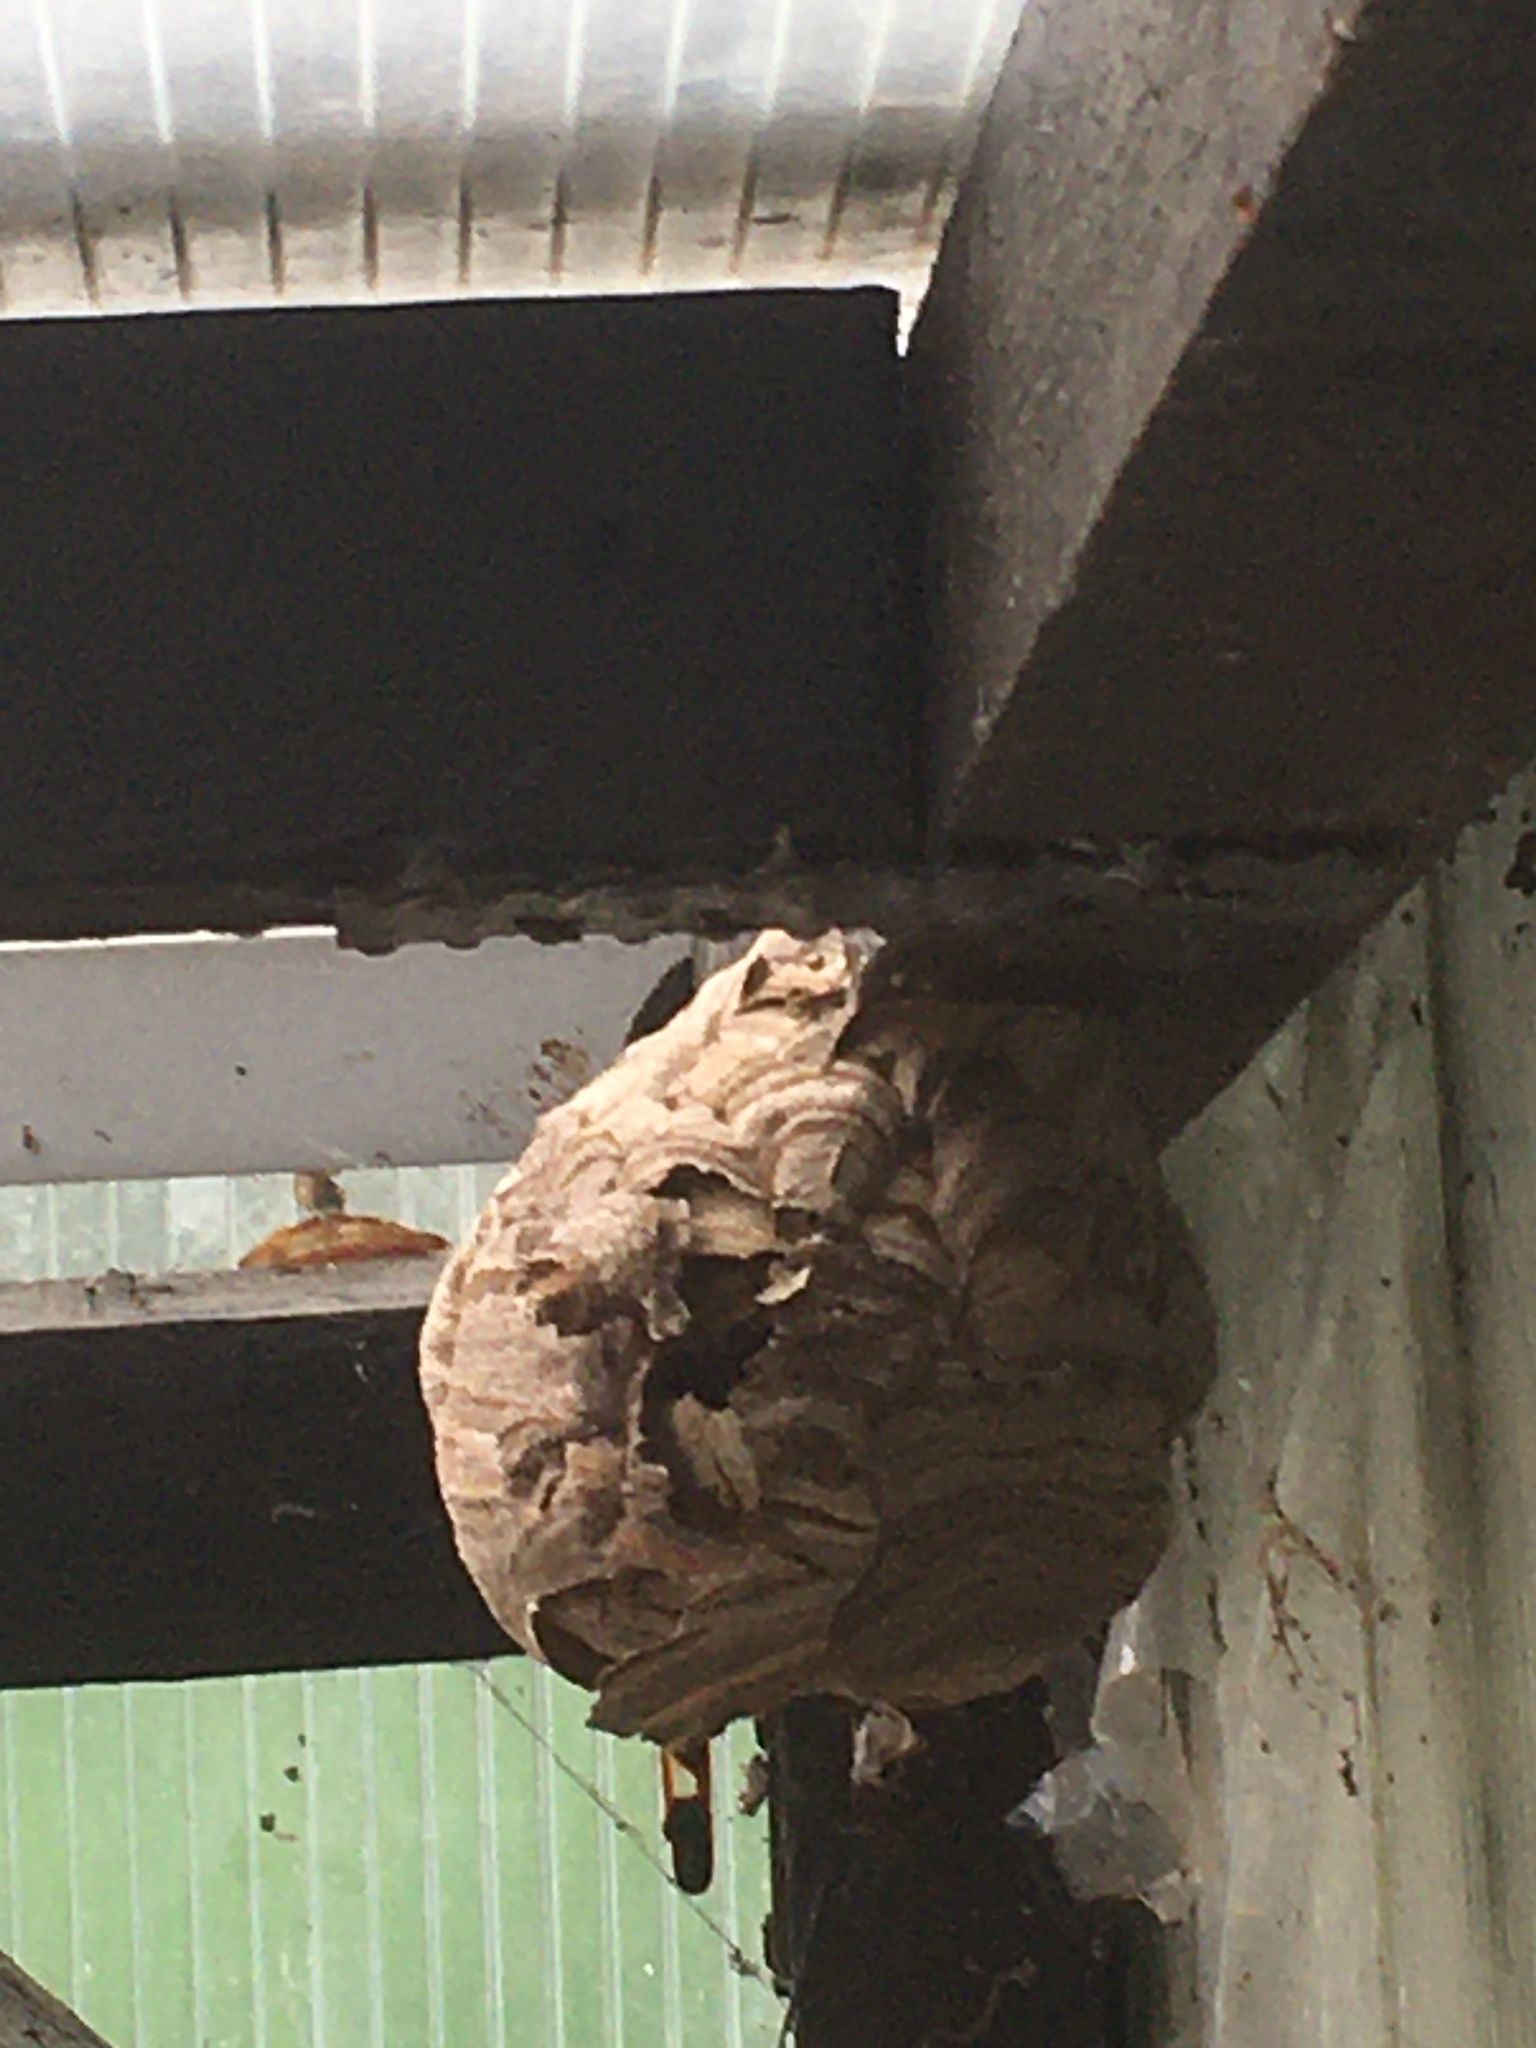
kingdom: Animalia
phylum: Arthropoda
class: Insecta
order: Hymenoptera
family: Vespidae
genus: Vespa
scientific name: Vespa velutina
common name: Asian hornet
